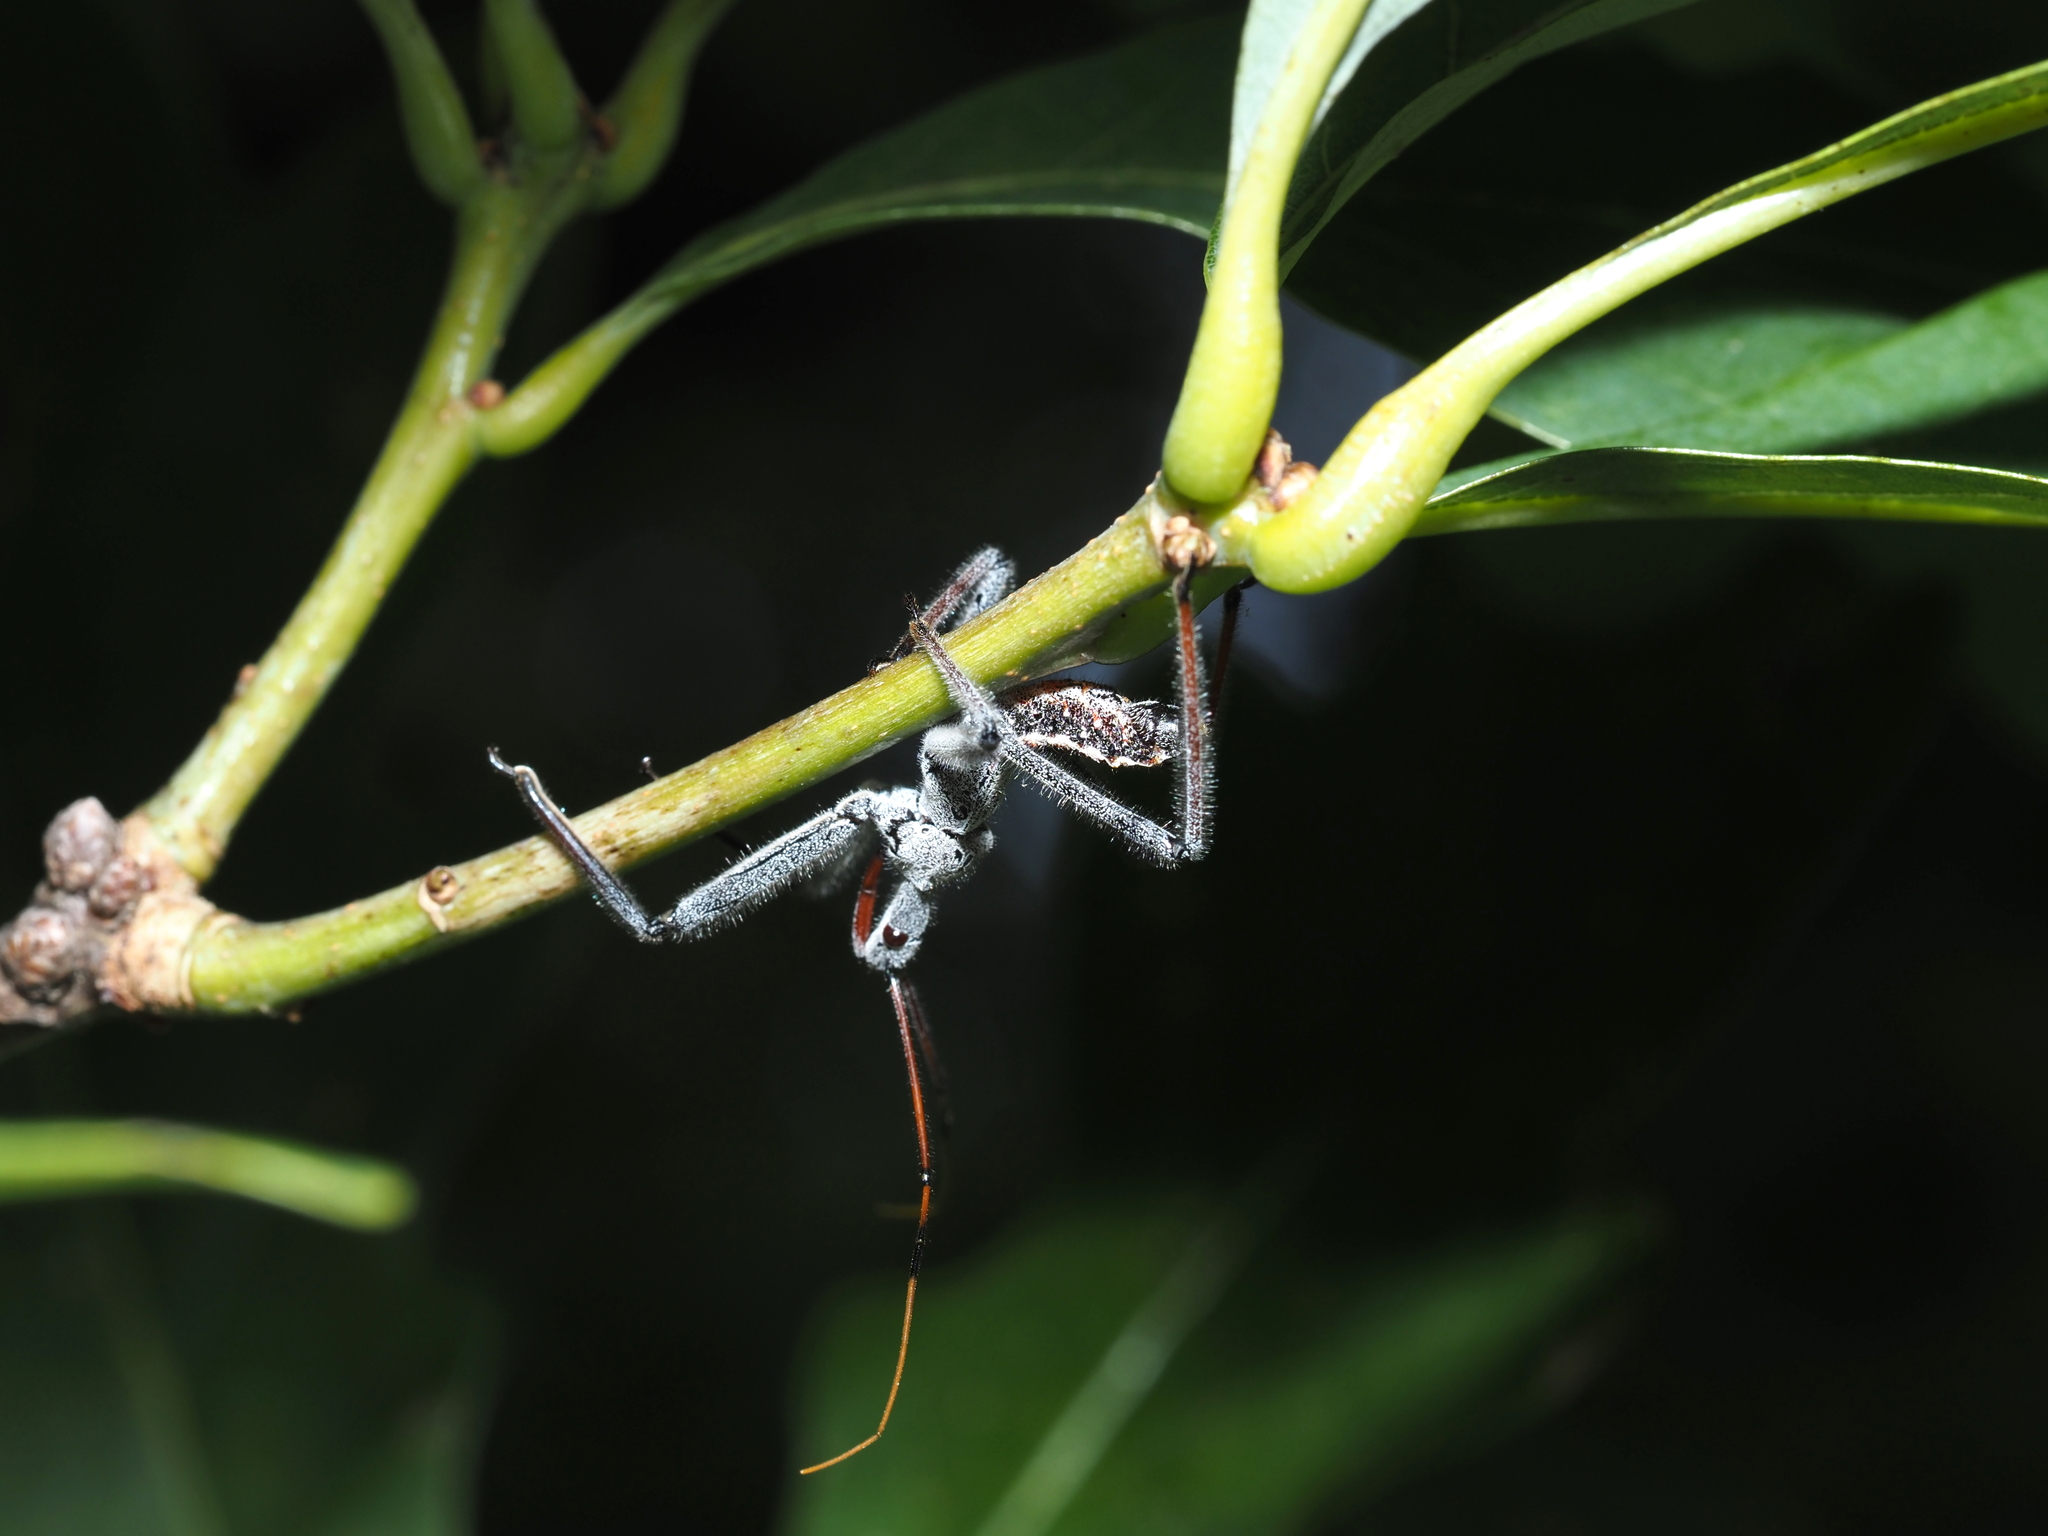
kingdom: Animalia
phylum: Arthropoda
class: Insecta
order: Hemiptera
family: Reduviidae
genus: Arilus
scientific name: Arilus cristatus
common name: North american wheel bug
